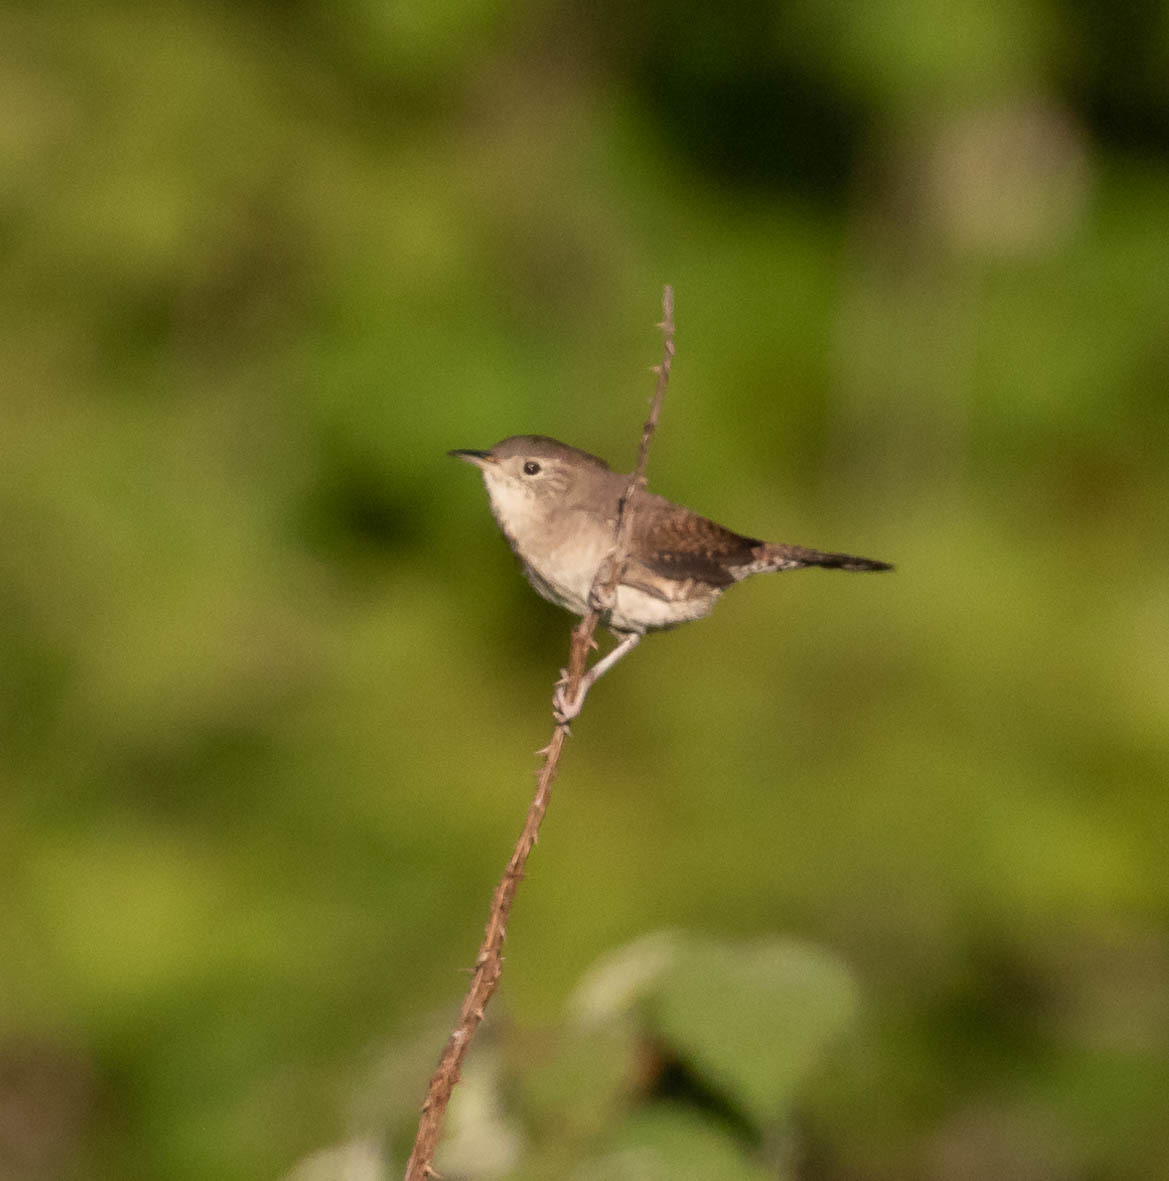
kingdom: Animalia
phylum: Chordata
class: Aves
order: Passeriformes
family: Troglodytidae
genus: Troglodytes
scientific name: Troglodytes aedon
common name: House wren
